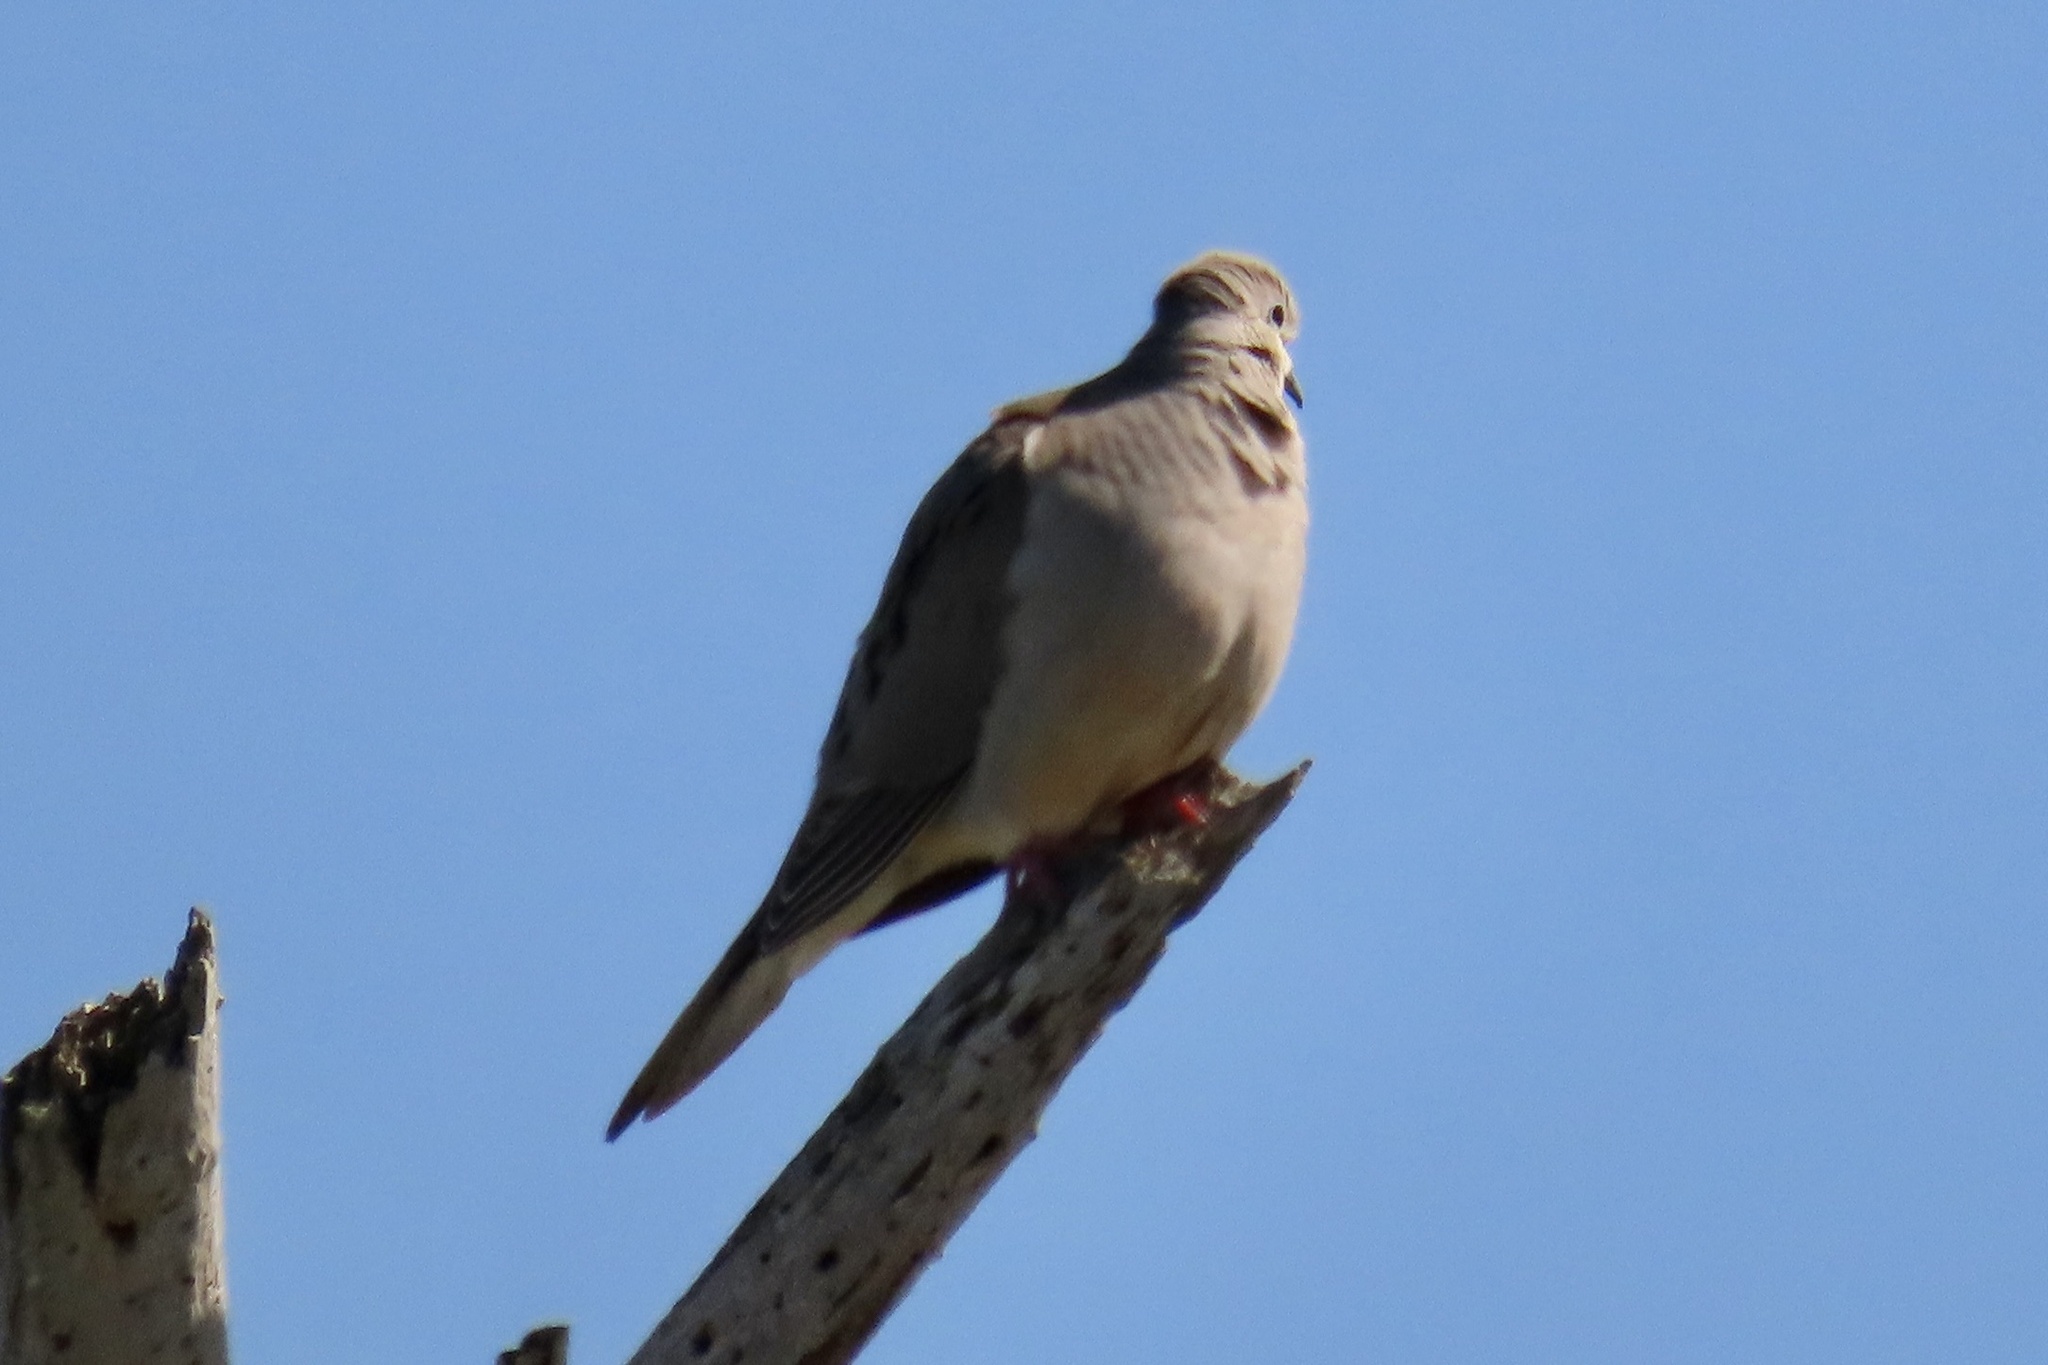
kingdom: Animalia
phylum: Chordata
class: Aves
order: Columbiformes
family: Columbidae
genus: Zenaida
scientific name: Zenaida macroura
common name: Mourning dove
